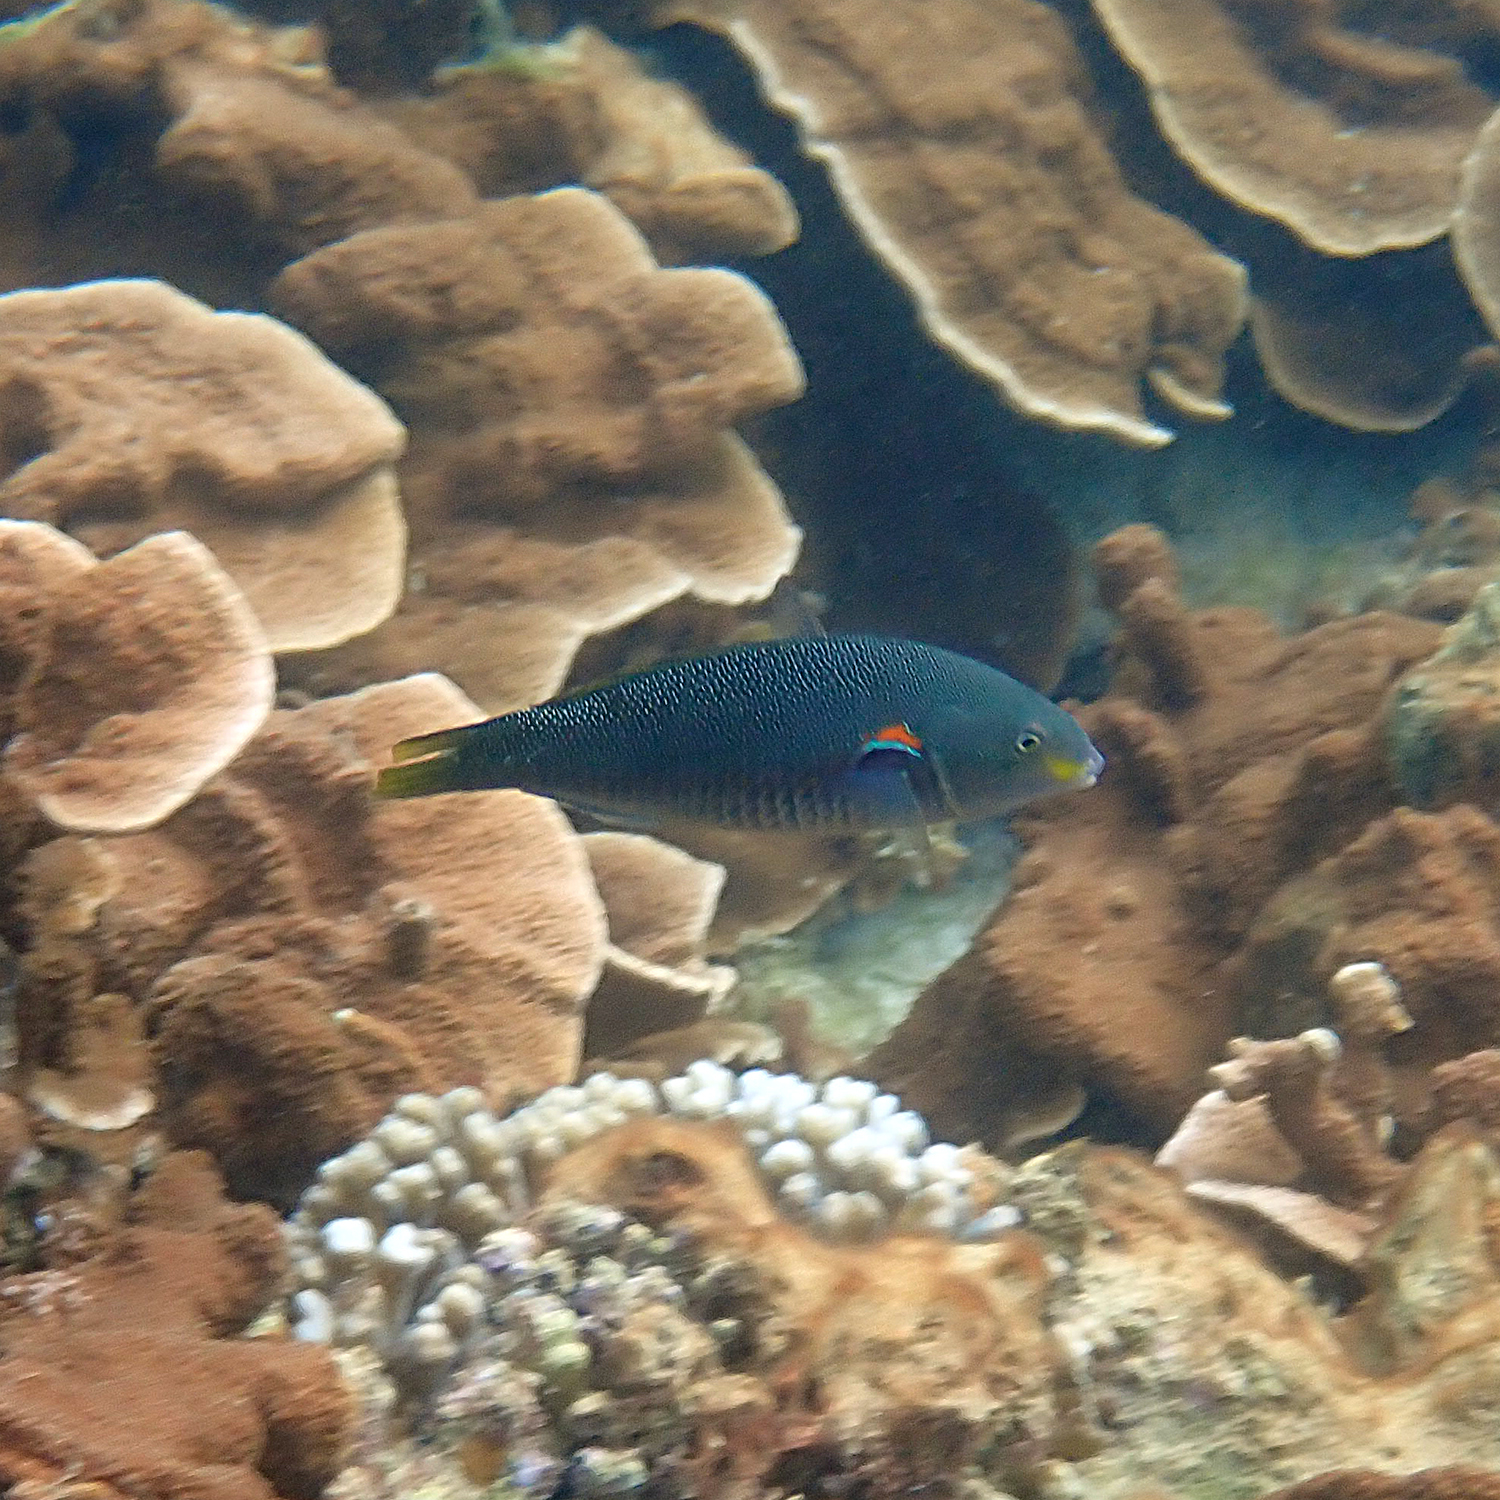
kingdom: Animalia
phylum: Chordata
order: Perciformes
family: Labridae
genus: Stethojulis
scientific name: Stethojulis bandanensis
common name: Red shoulder wrasse
